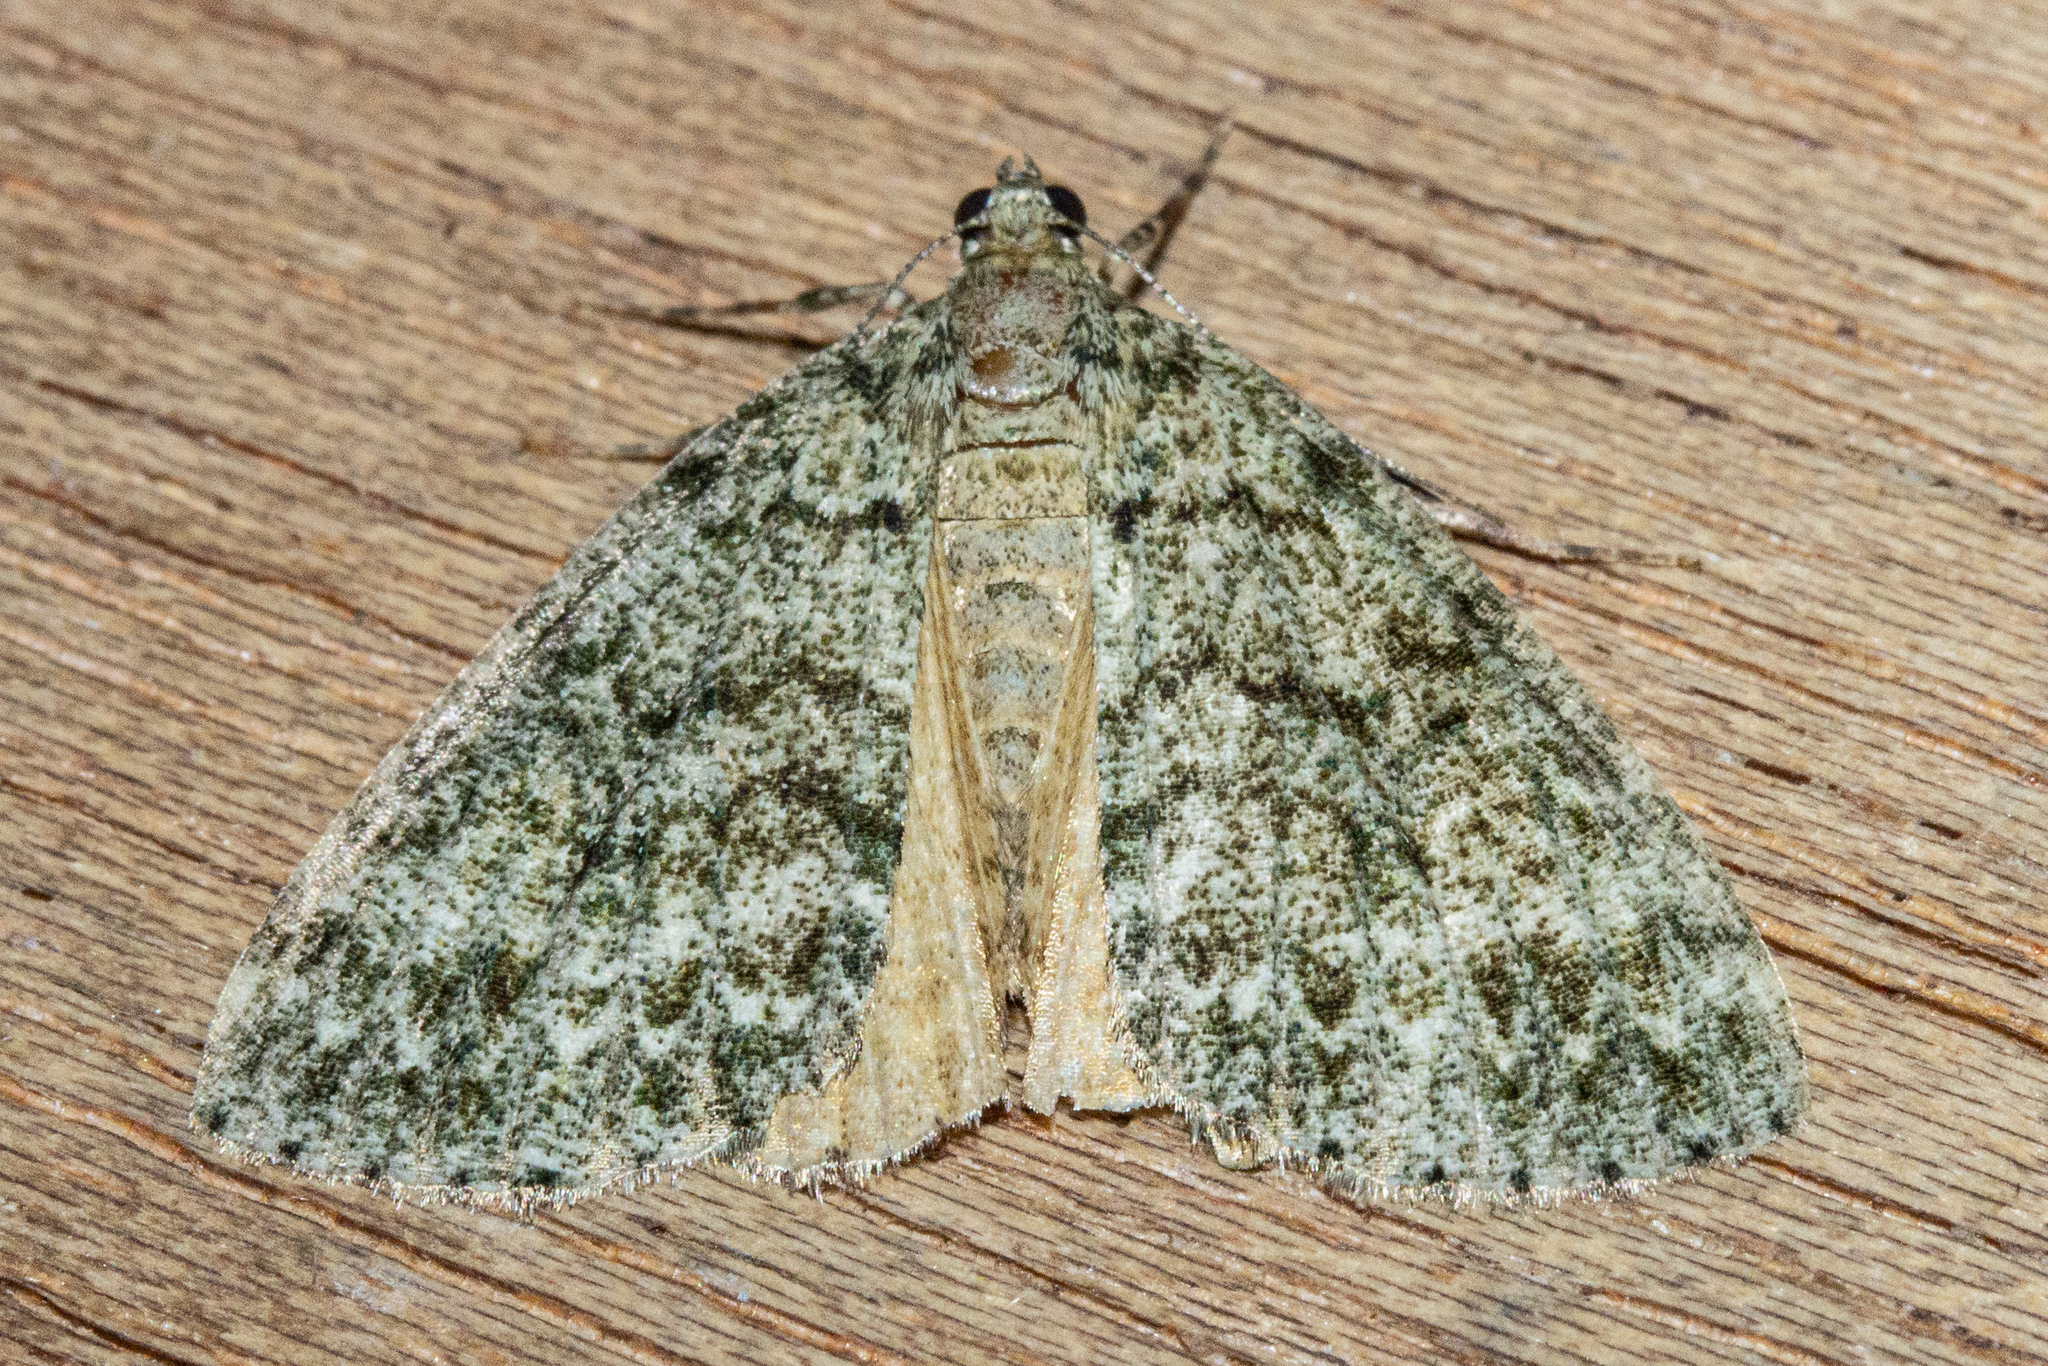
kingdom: Animalia
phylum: Arthropoda
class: Insecta
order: Lepidoptera
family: Geometridae
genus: Pseudocoremia
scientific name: Pseudocoremia indistincta
